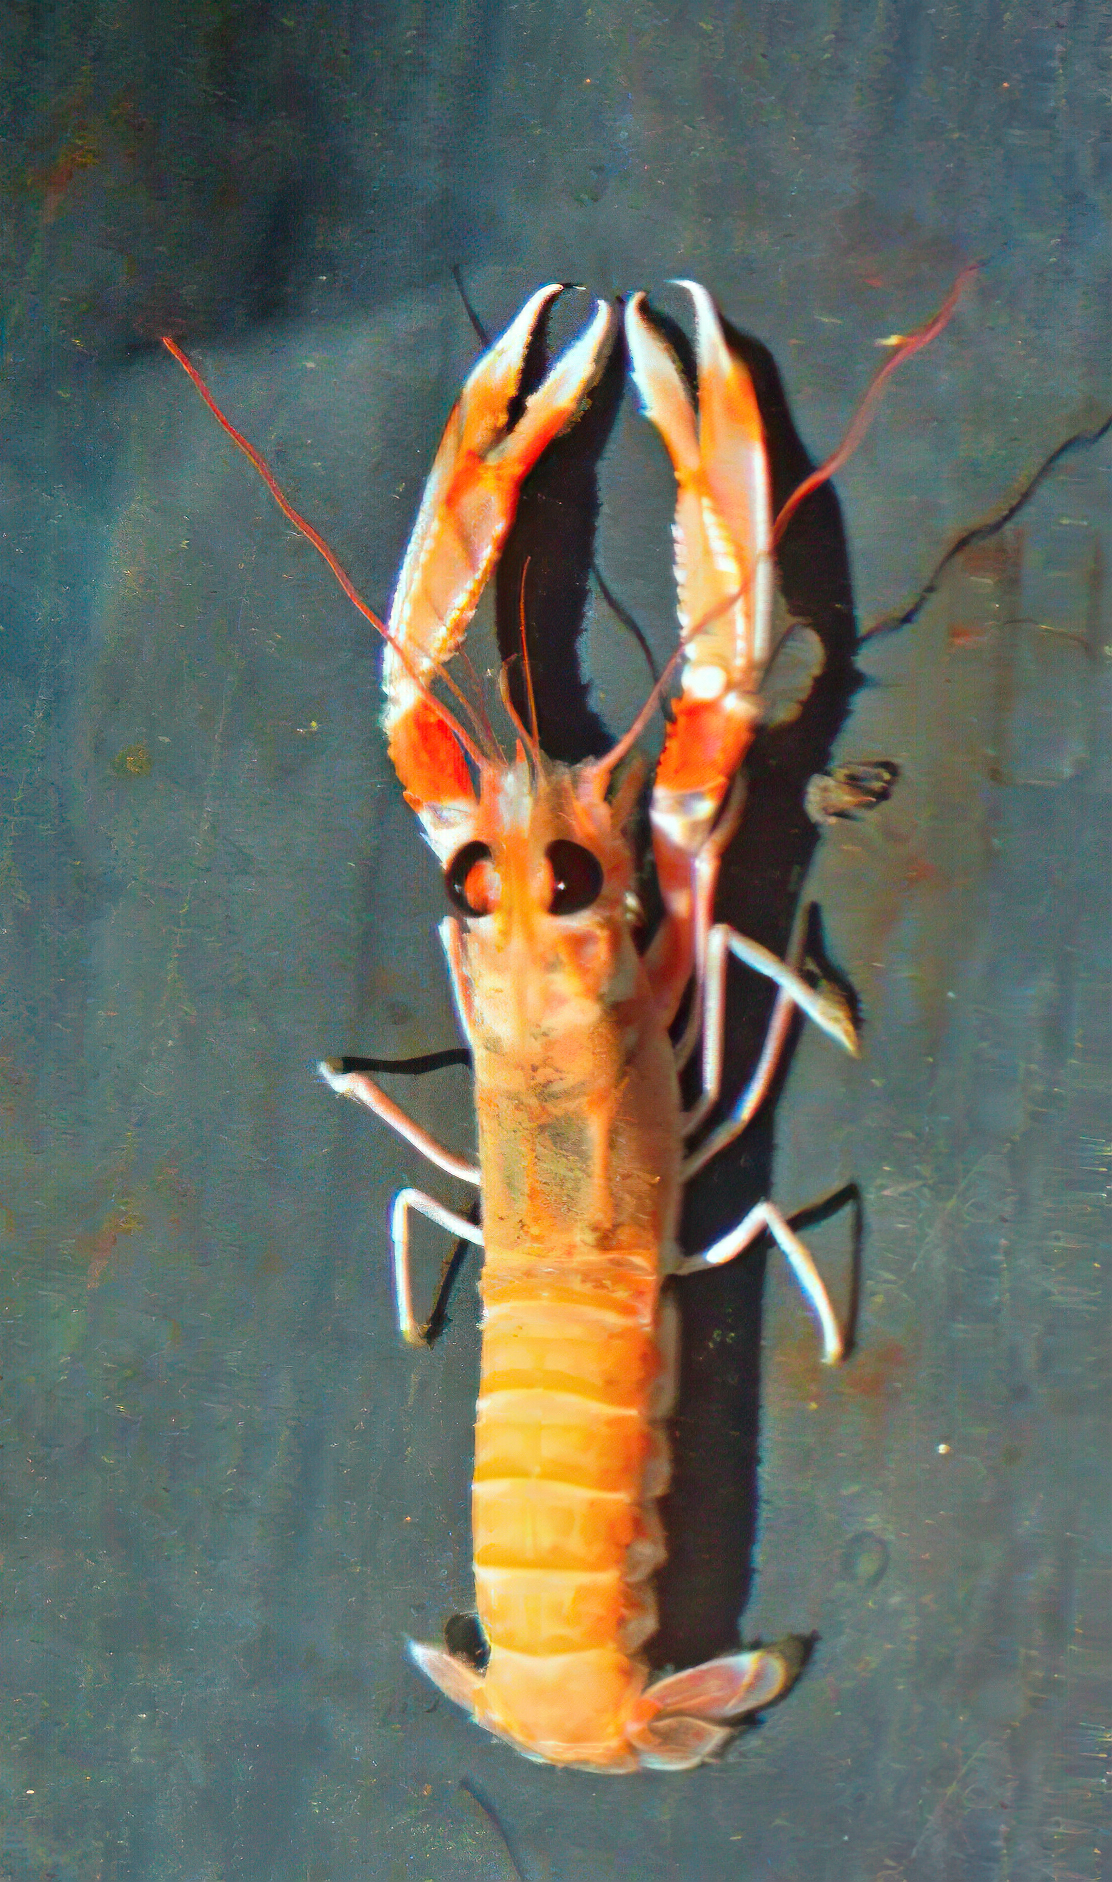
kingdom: Animalia
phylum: Arthropoda
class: Malacostraca
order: Decapoda
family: Nephropidae
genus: Nephrops
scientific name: Nephrops norvegicus
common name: Norway lobster
